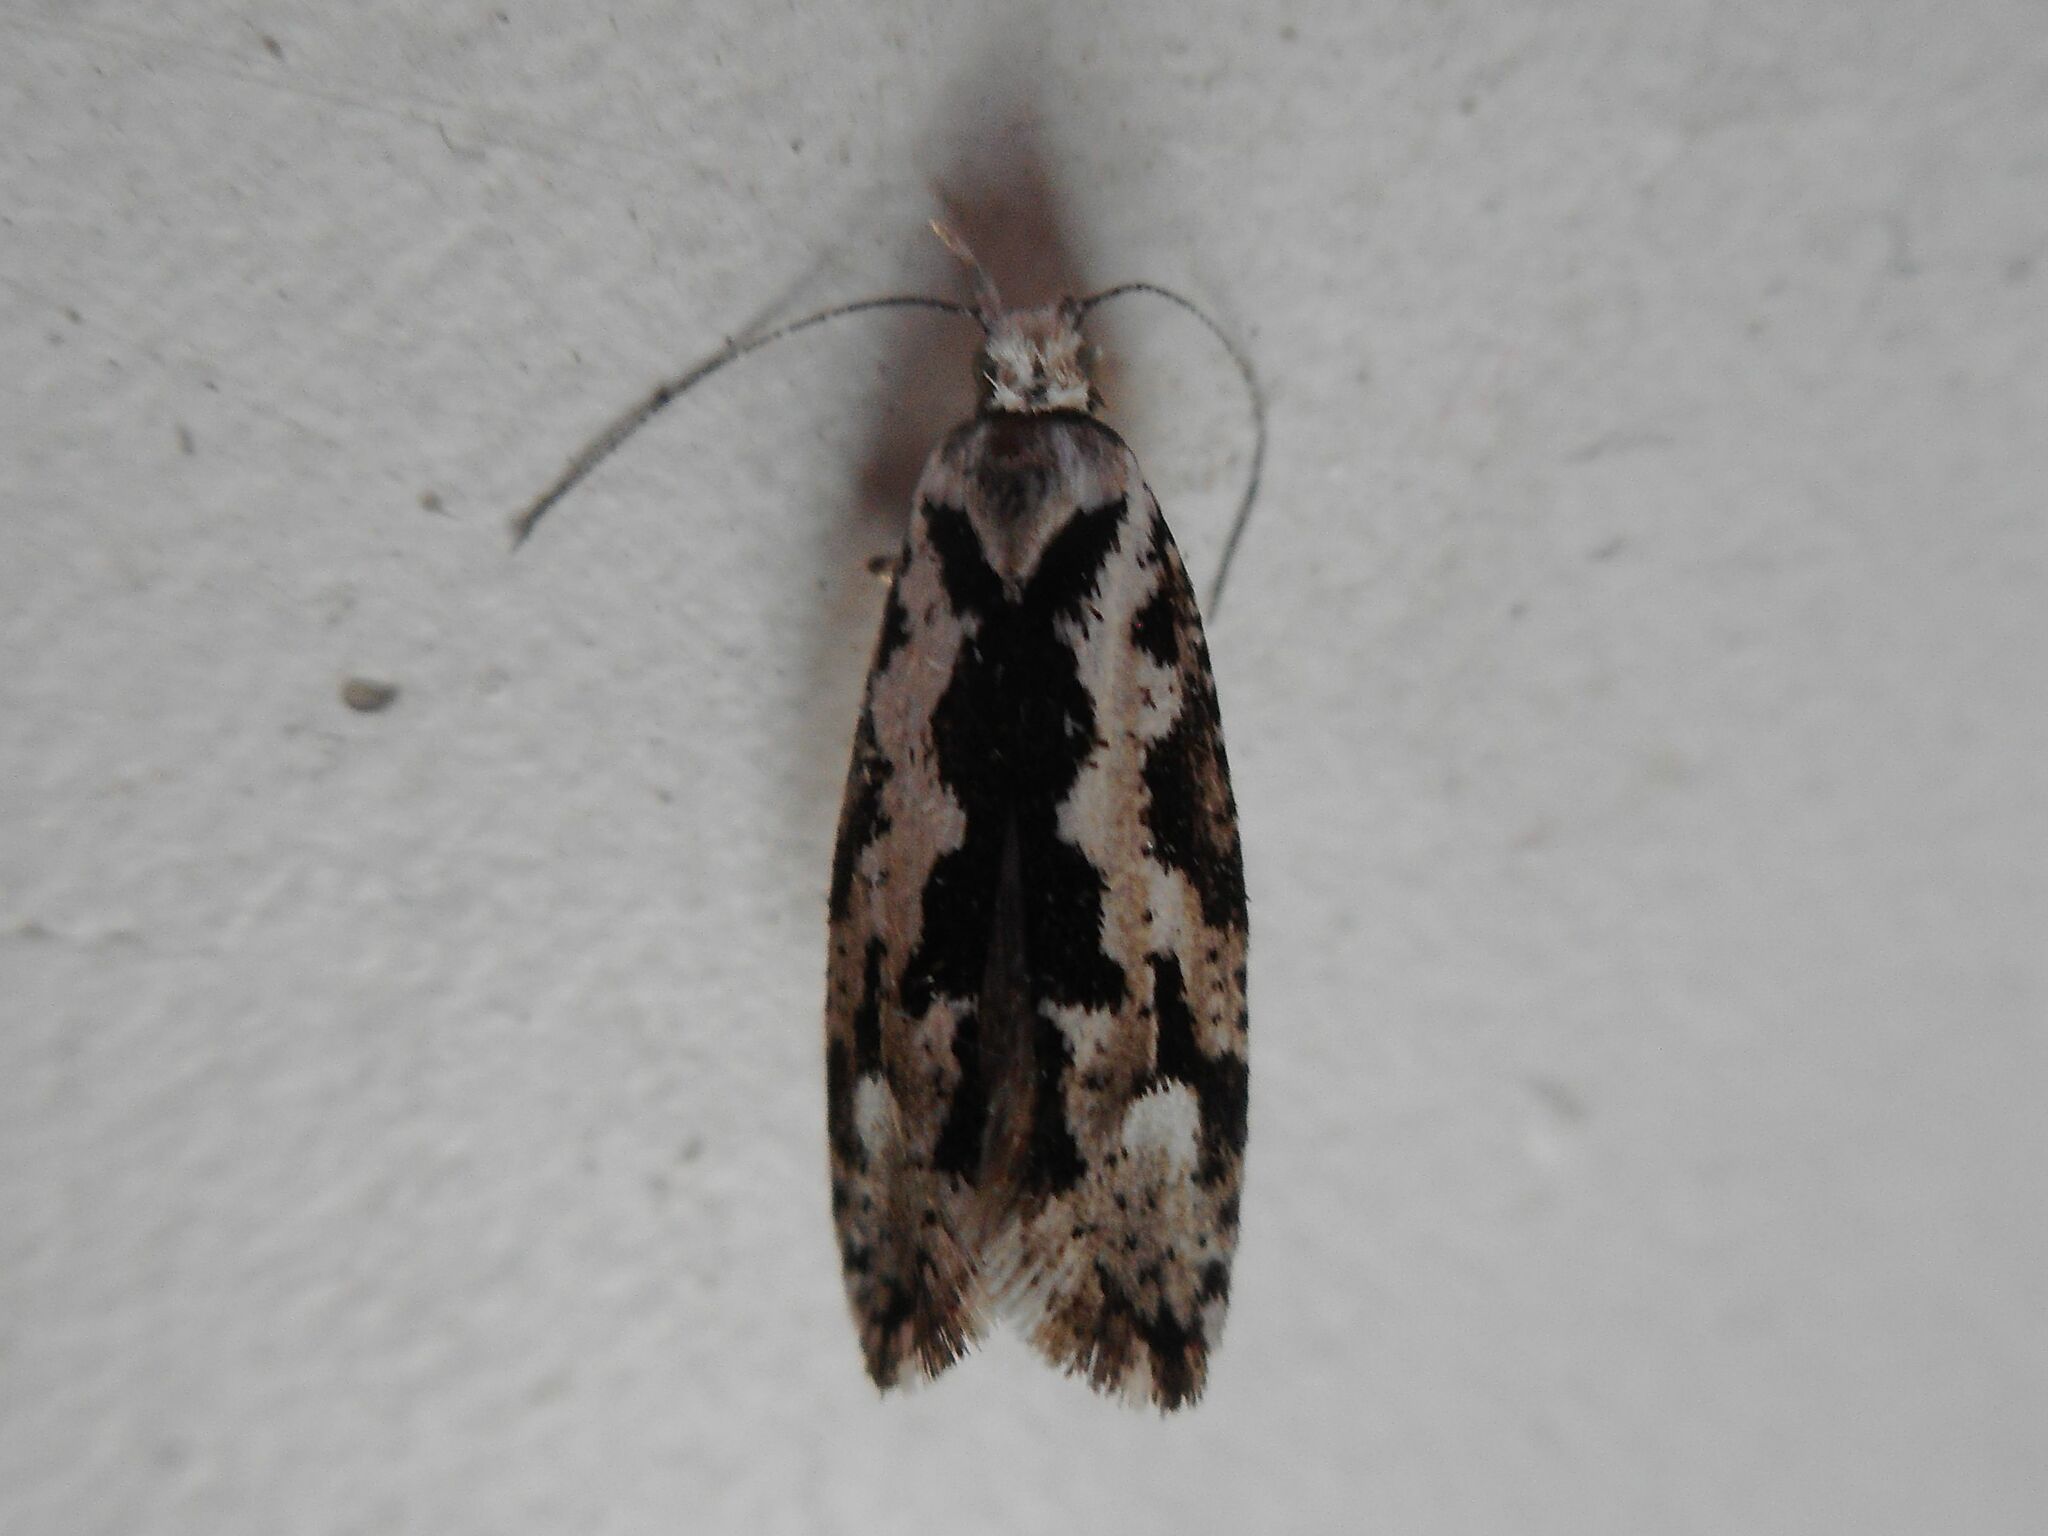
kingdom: Animalia
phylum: Arthropoda
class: Insecta
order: Lepidoptera
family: Plutellidae
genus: Ypsolophus
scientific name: Ypsolophus sequella
